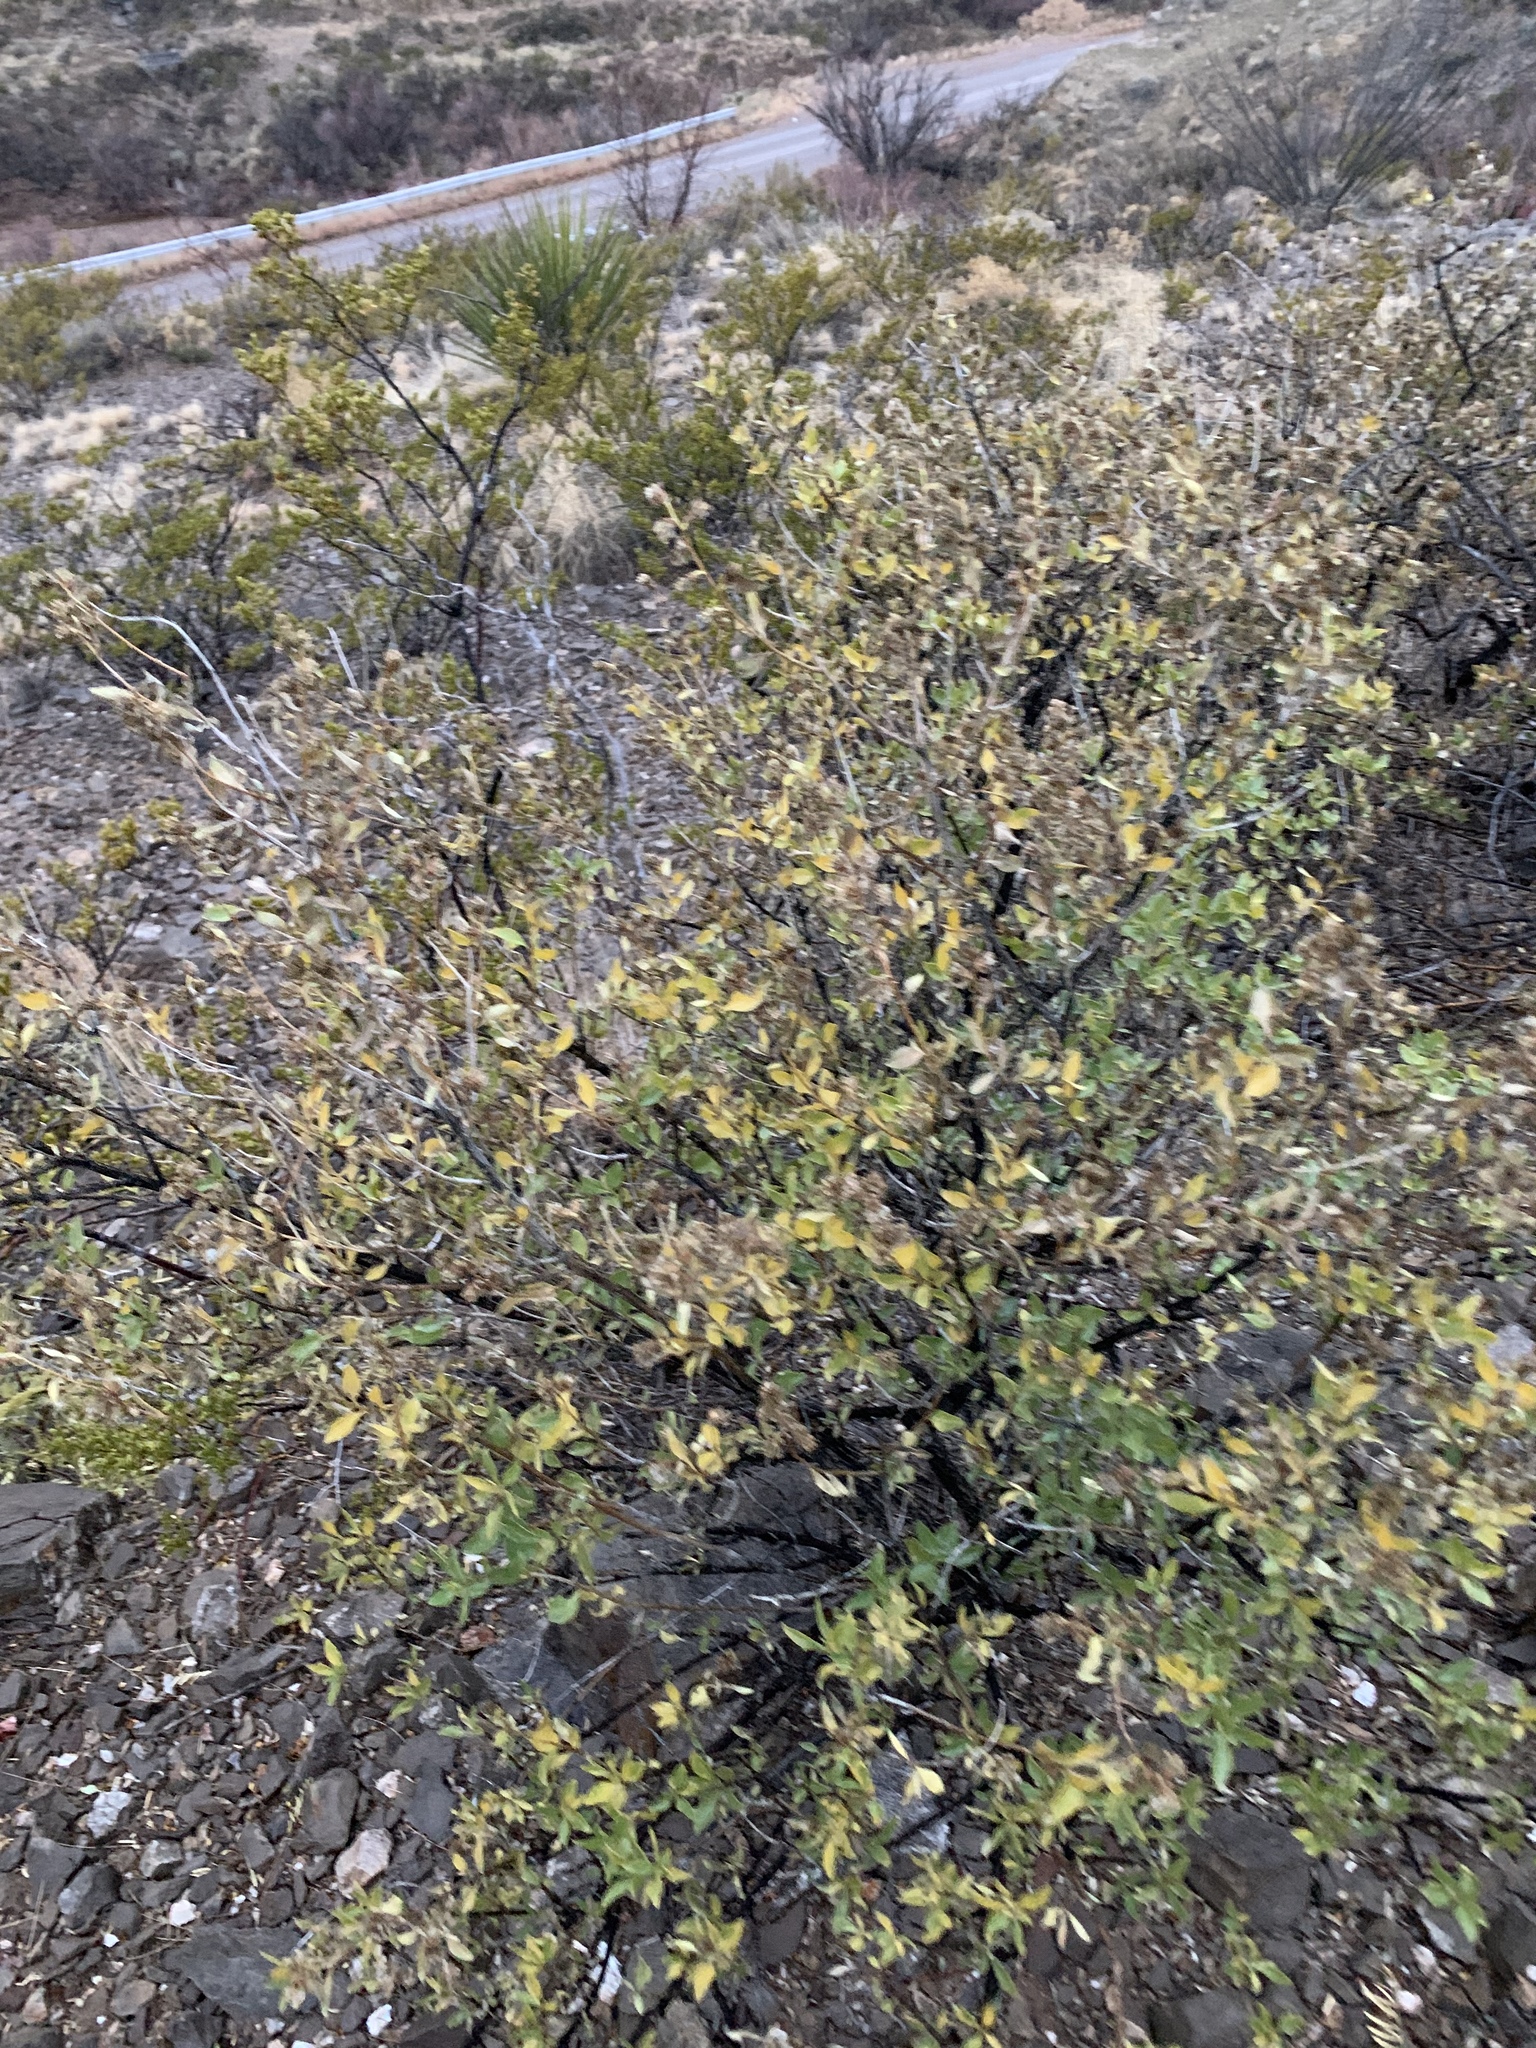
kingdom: Plantae
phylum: Tracheophyta
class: Magnoliopsida
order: Asterales
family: Asteraceae
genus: Flourensia
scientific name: Flourensia cernua
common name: Varnishbush
